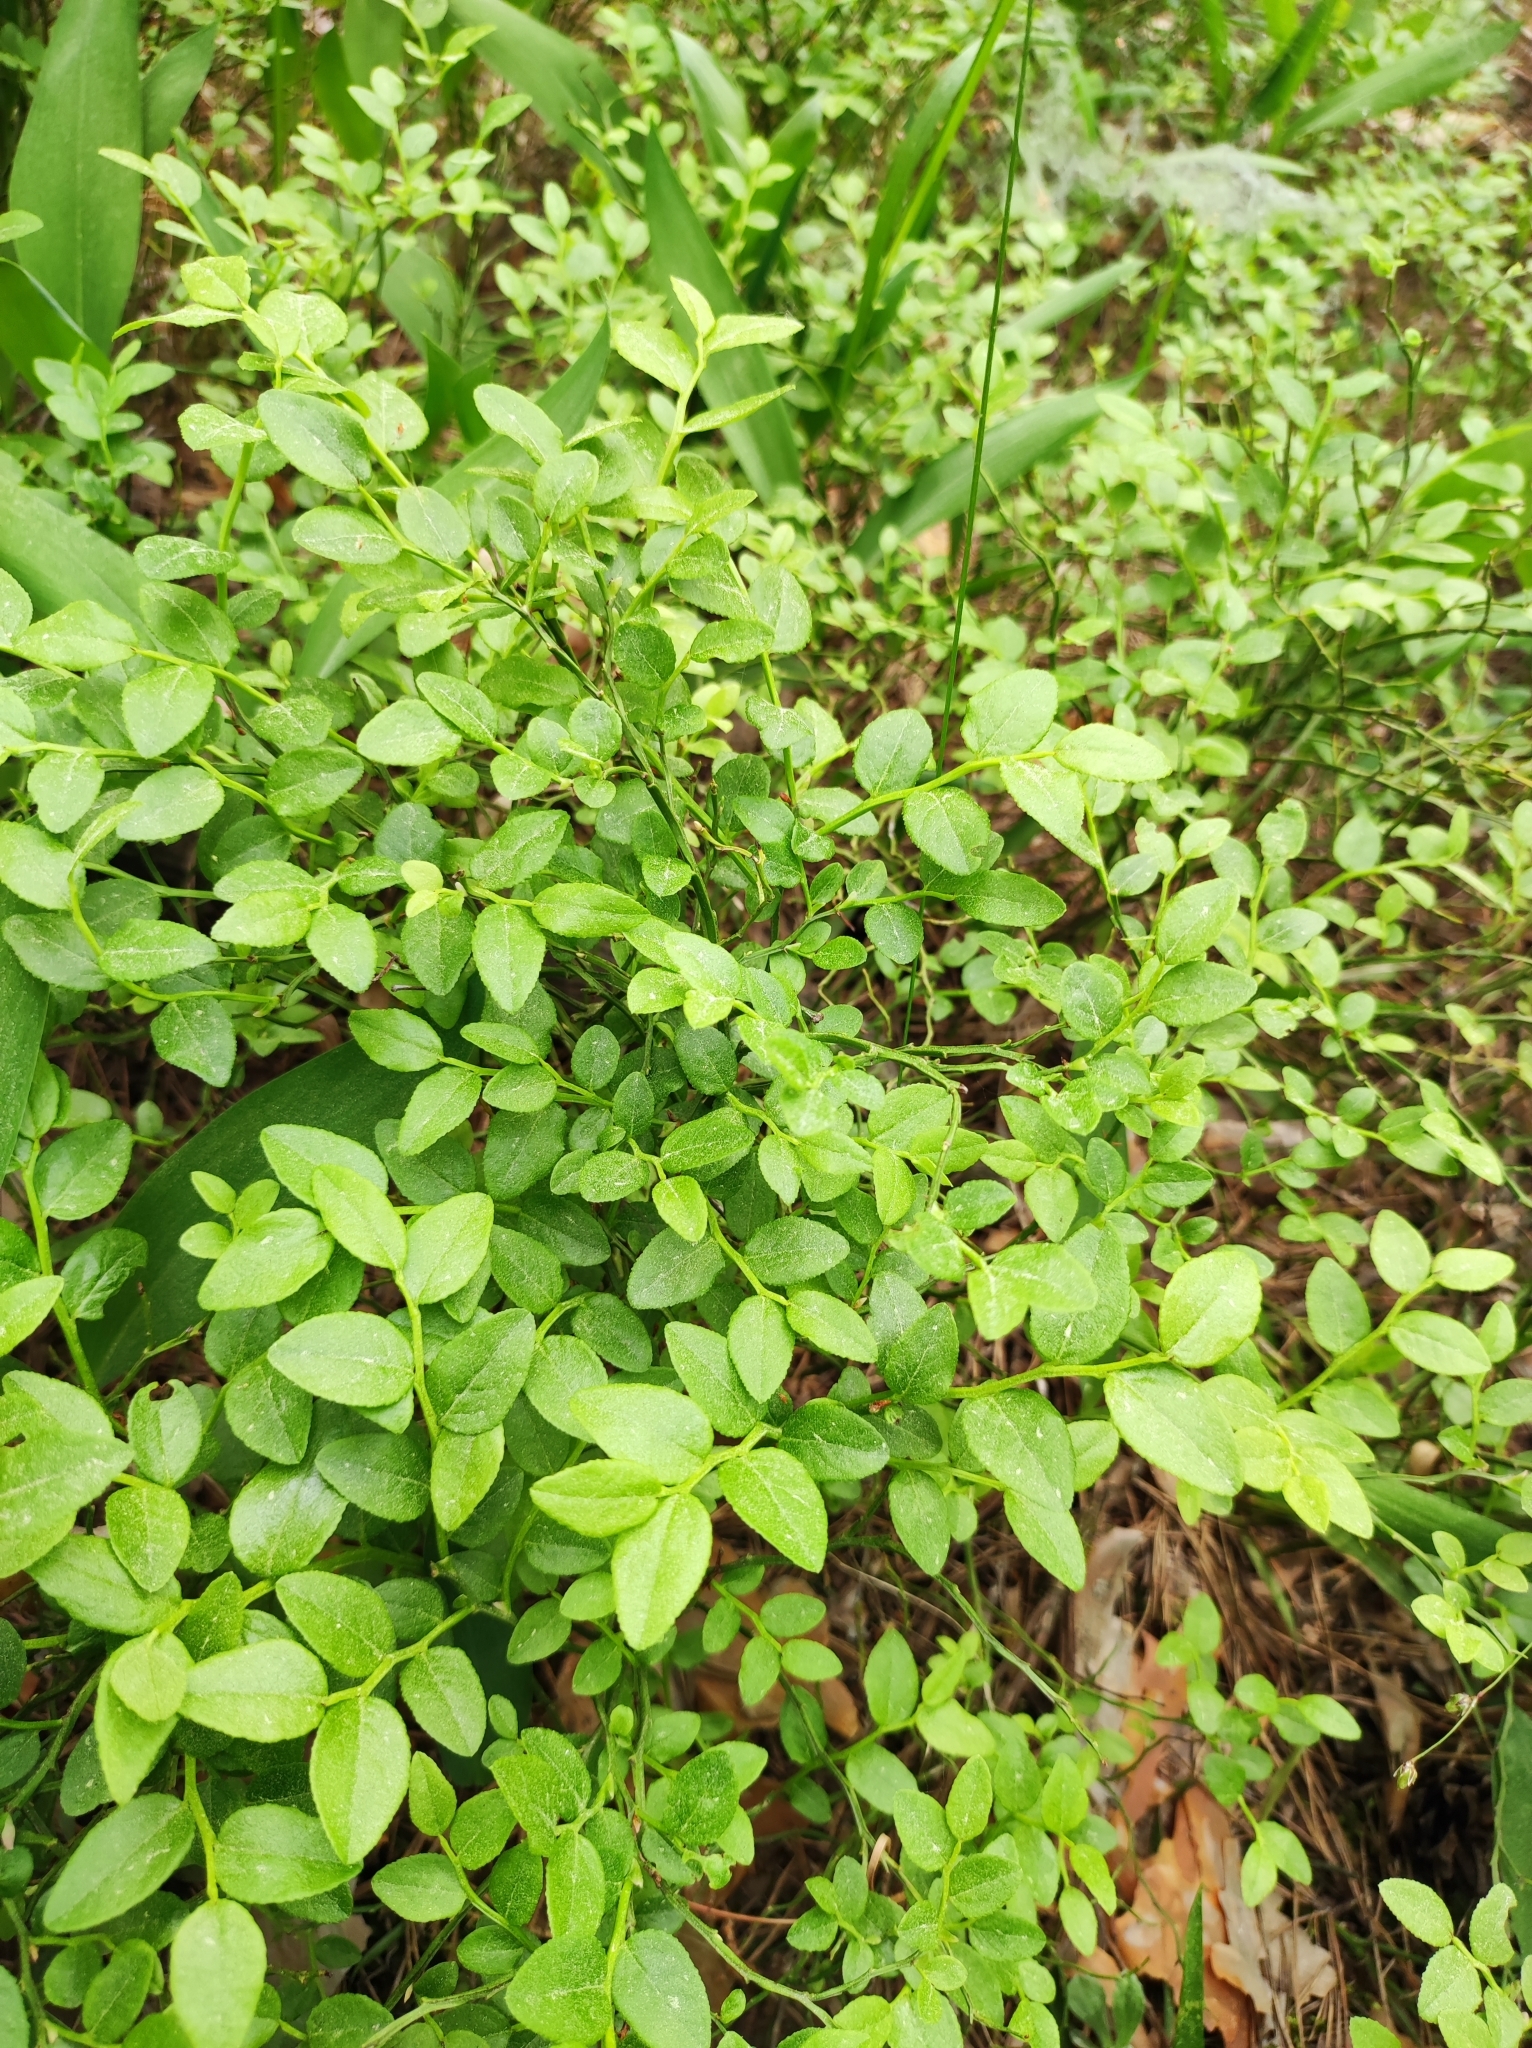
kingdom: Plantae
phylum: Tracheophyta
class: Magnoliopsida
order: Ericales
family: Ericaceae
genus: Vaccinium
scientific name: Vaccinium myrtillus
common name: Bilberry
